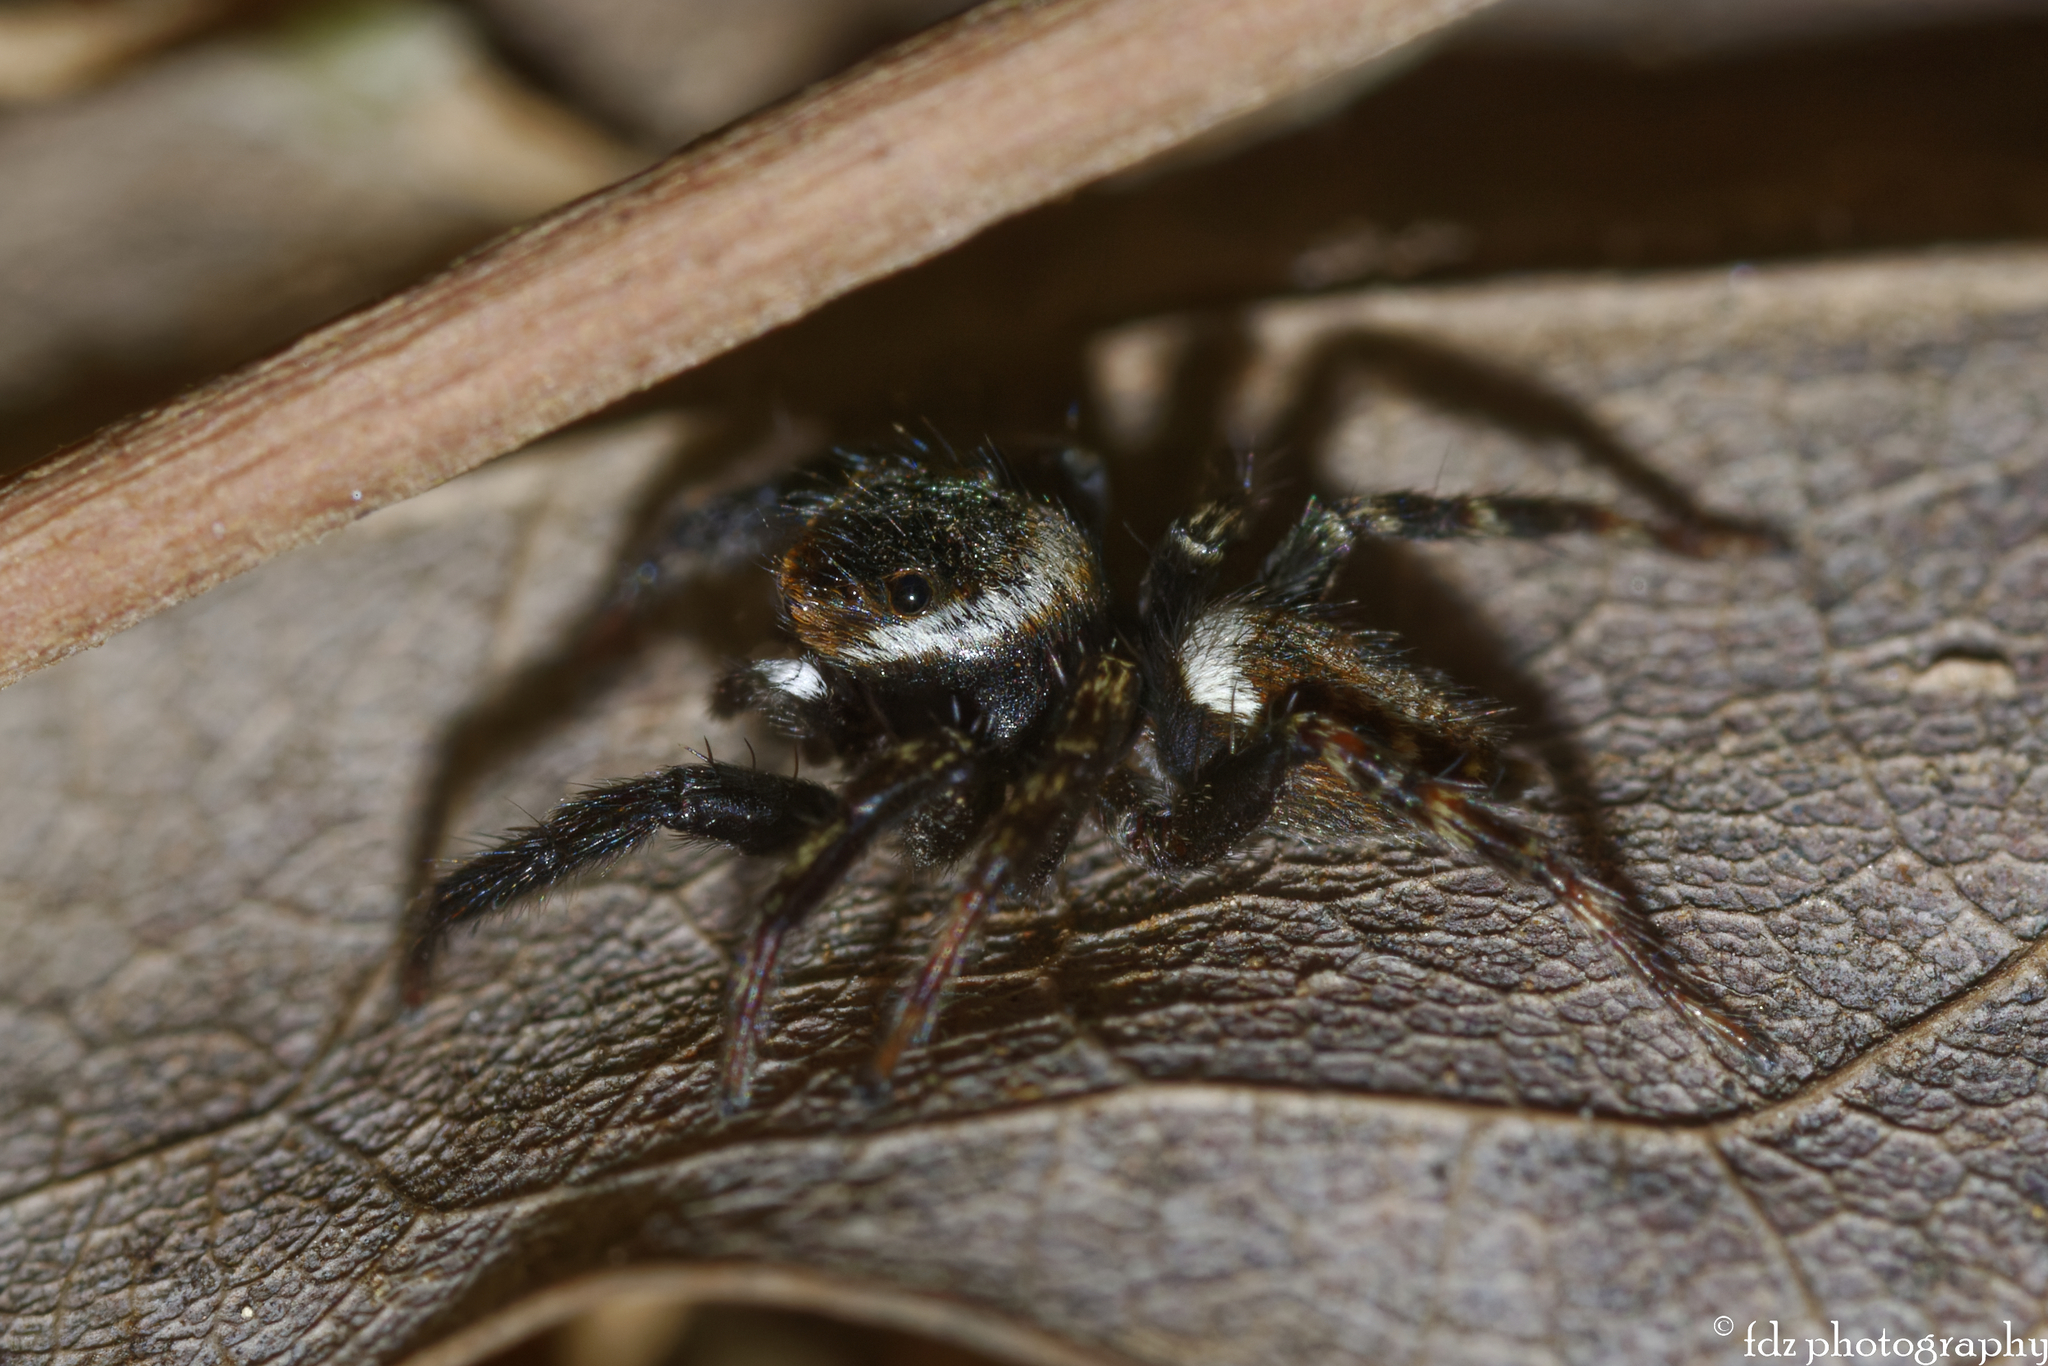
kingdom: Animalia
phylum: Arthropoda
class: Arachnida
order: Araneae
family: Salticidae
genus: Evarcha
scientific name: Evarcha jucunda
